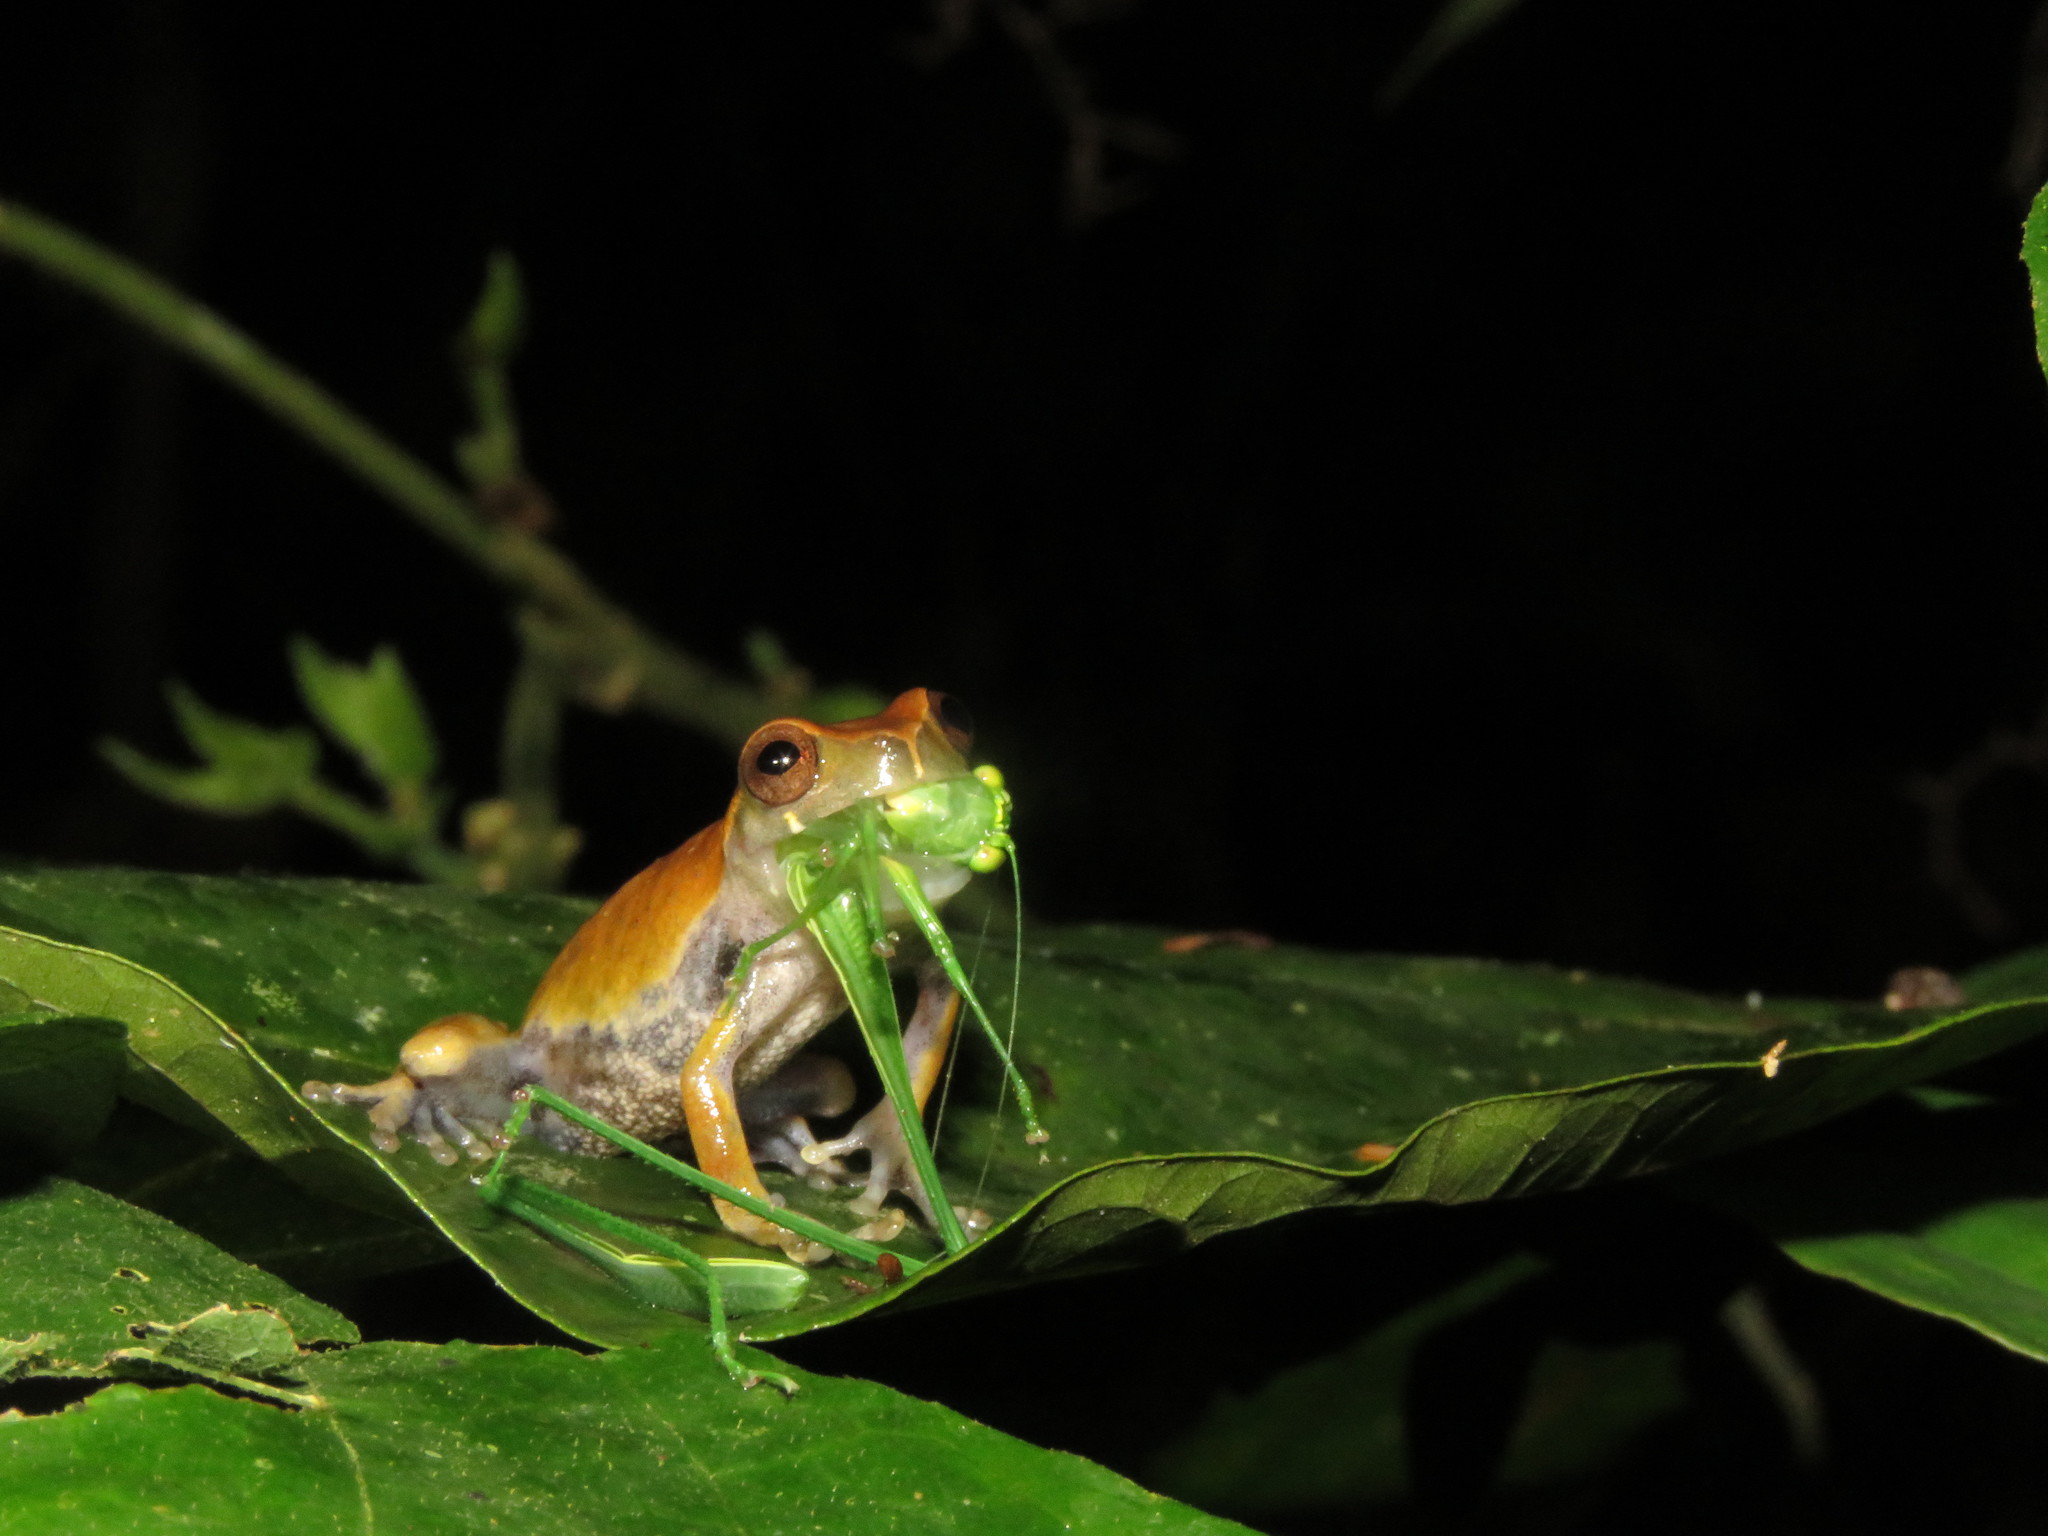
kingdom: Animalia
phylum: Chordata
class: Amphibia
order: Anura
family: Hylidae
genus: Dendropsophus
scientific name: Dendropsophus pauiniensis
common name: Pauini treefrog
